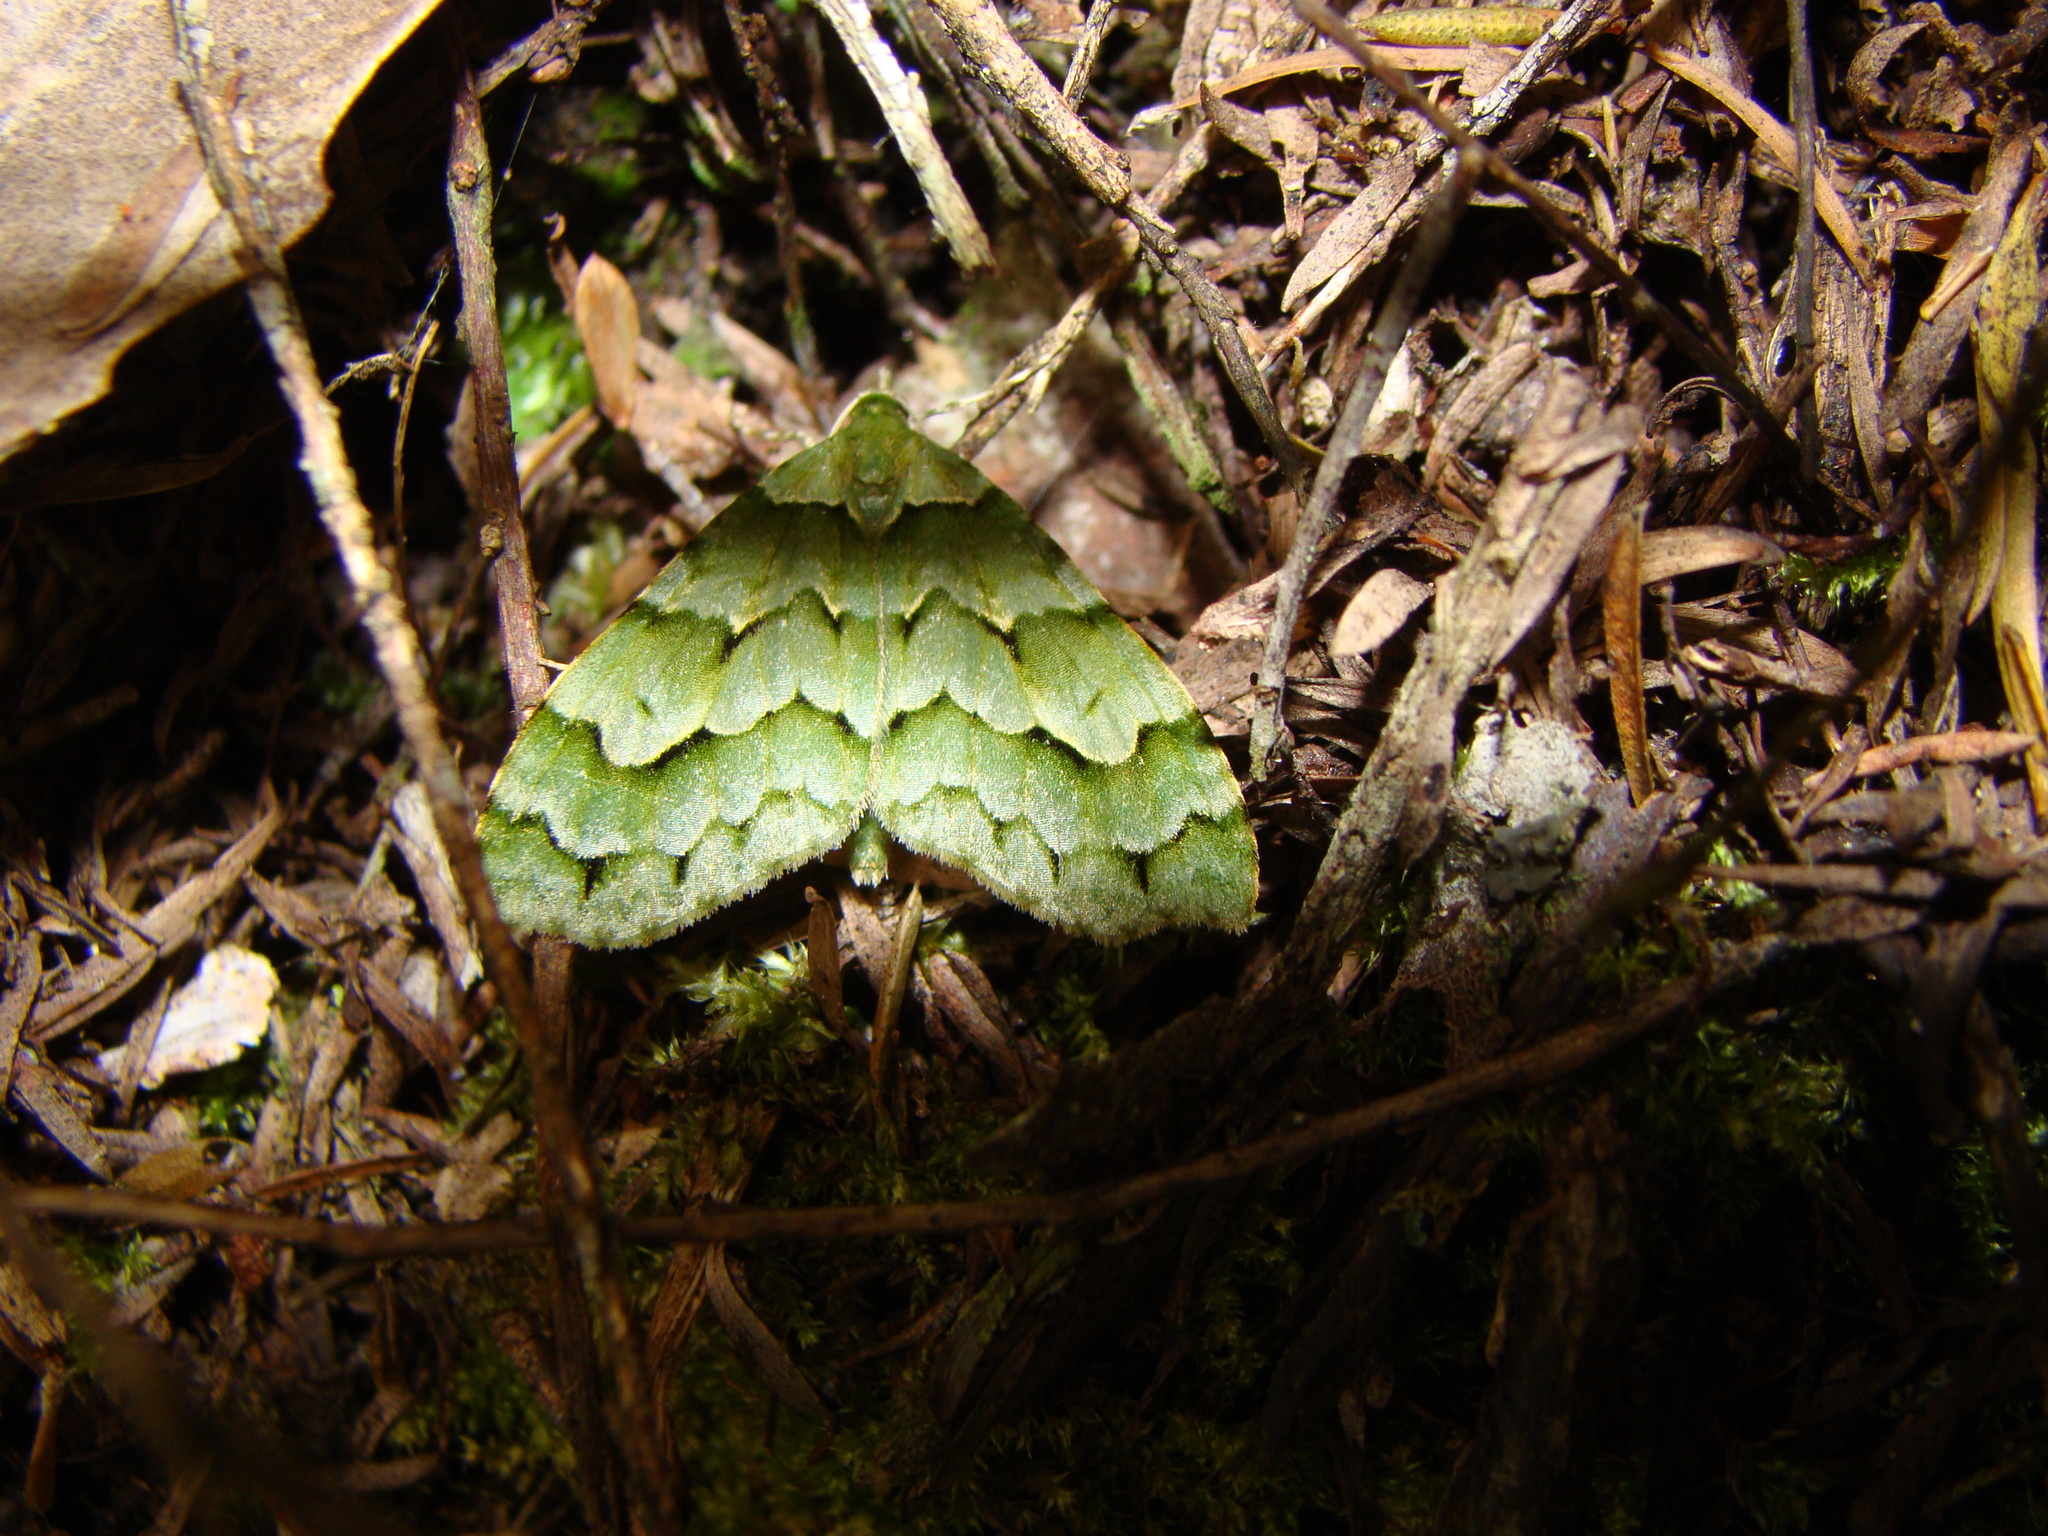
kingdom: Animalia
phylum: Arthropoda
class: Insecta
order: Lepidoptera
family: Geometridae
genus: Tatosoma
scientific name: Tatosoma lestevata
